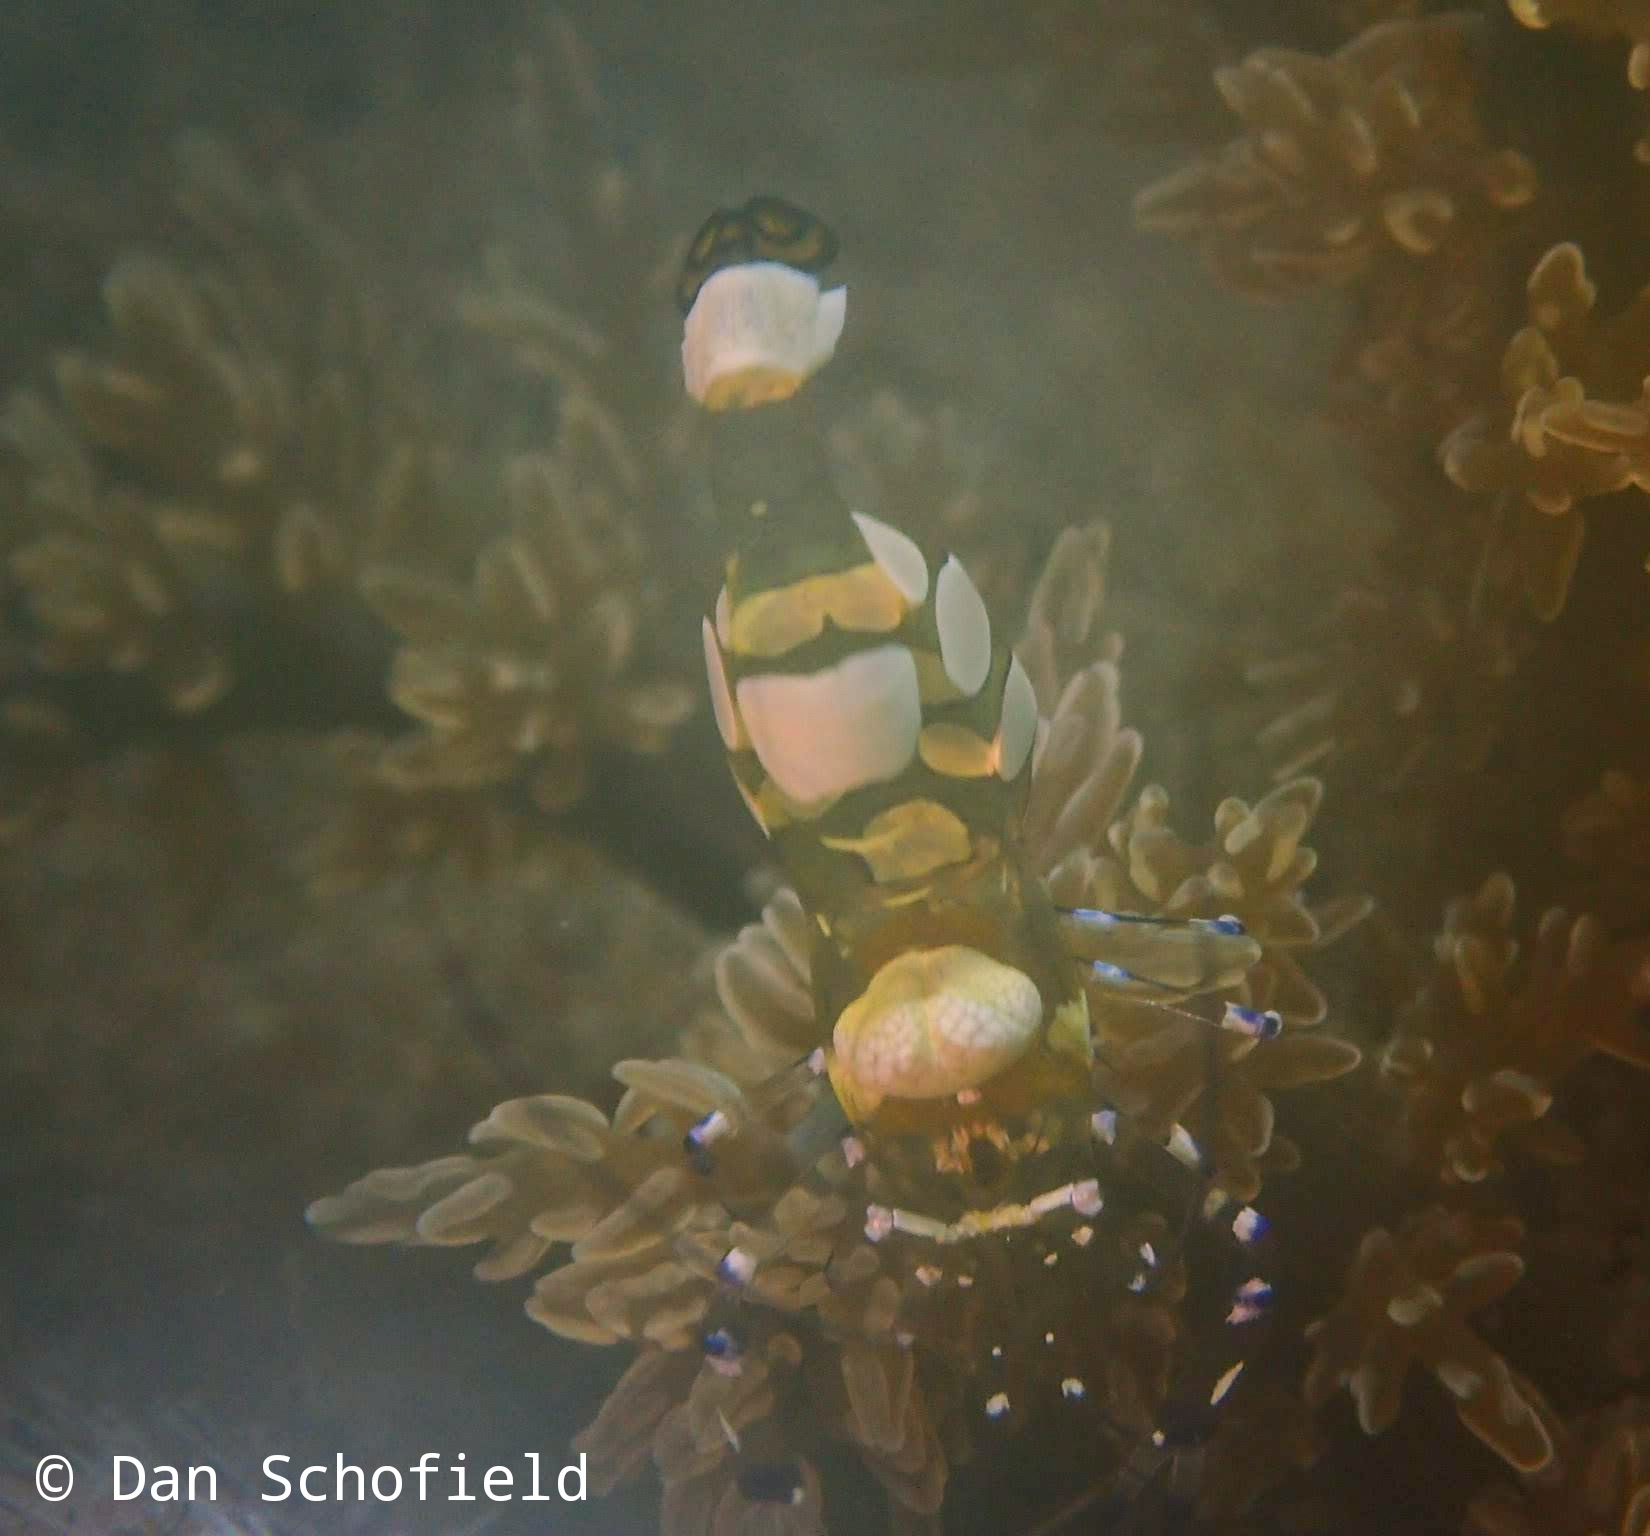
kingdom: Animalia
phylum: Arthropoda
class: Malacostraca
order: Decapoda
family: Palaemonidae
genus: Ancylocaris
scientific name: Ancylocaris brevicarpalis
